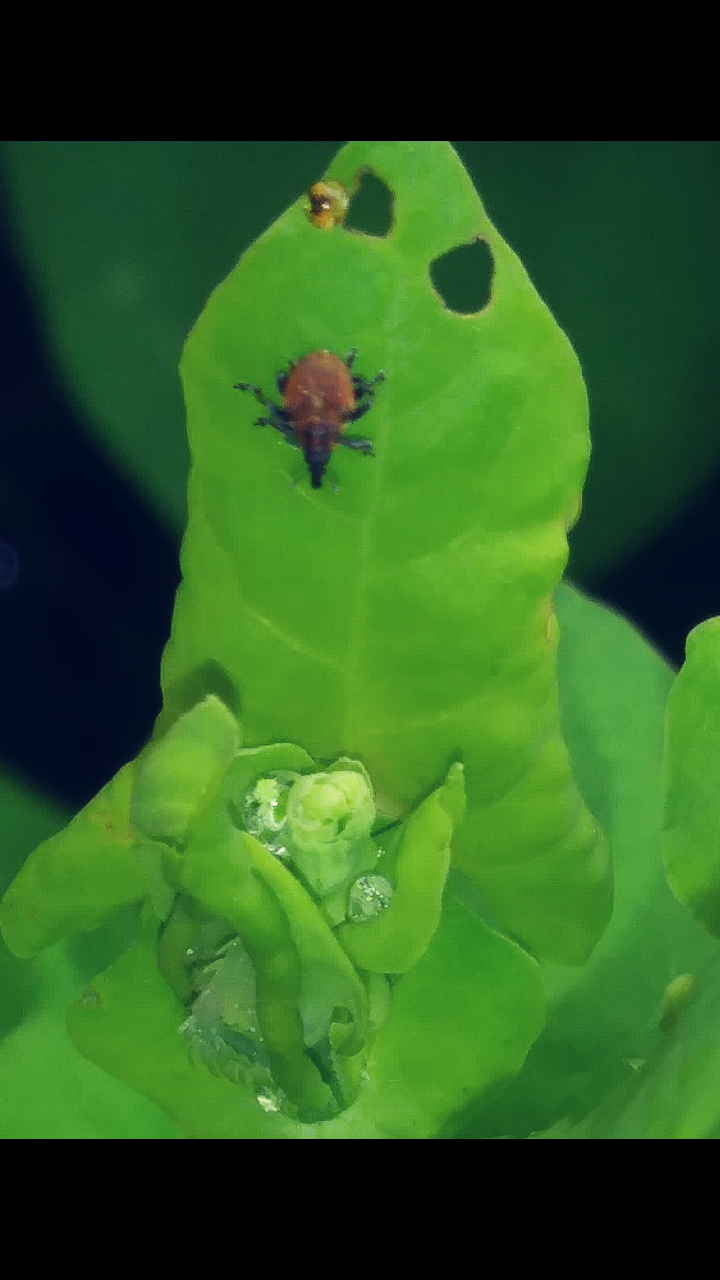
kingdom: Animalia
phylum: Arthropoda
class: Insecta
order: Coleoptera
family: Curculionidae
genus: Rhinoncomimus
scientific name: Rhinoncomimus latipes
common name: Chinese weevil
